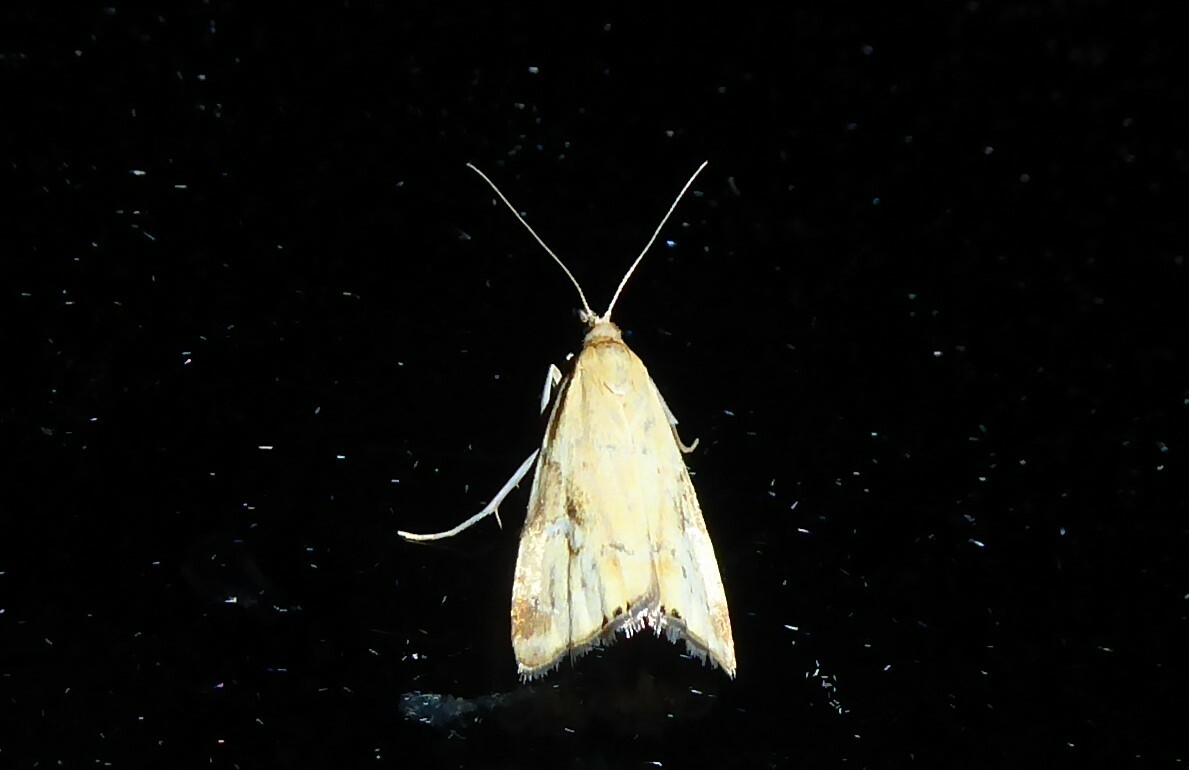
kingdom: Animalia
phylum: Arthropoda
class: Insecta
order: Lepidoptera
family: Crambidae
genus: Glaucocharis
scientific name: Glaucocharis lepidella
